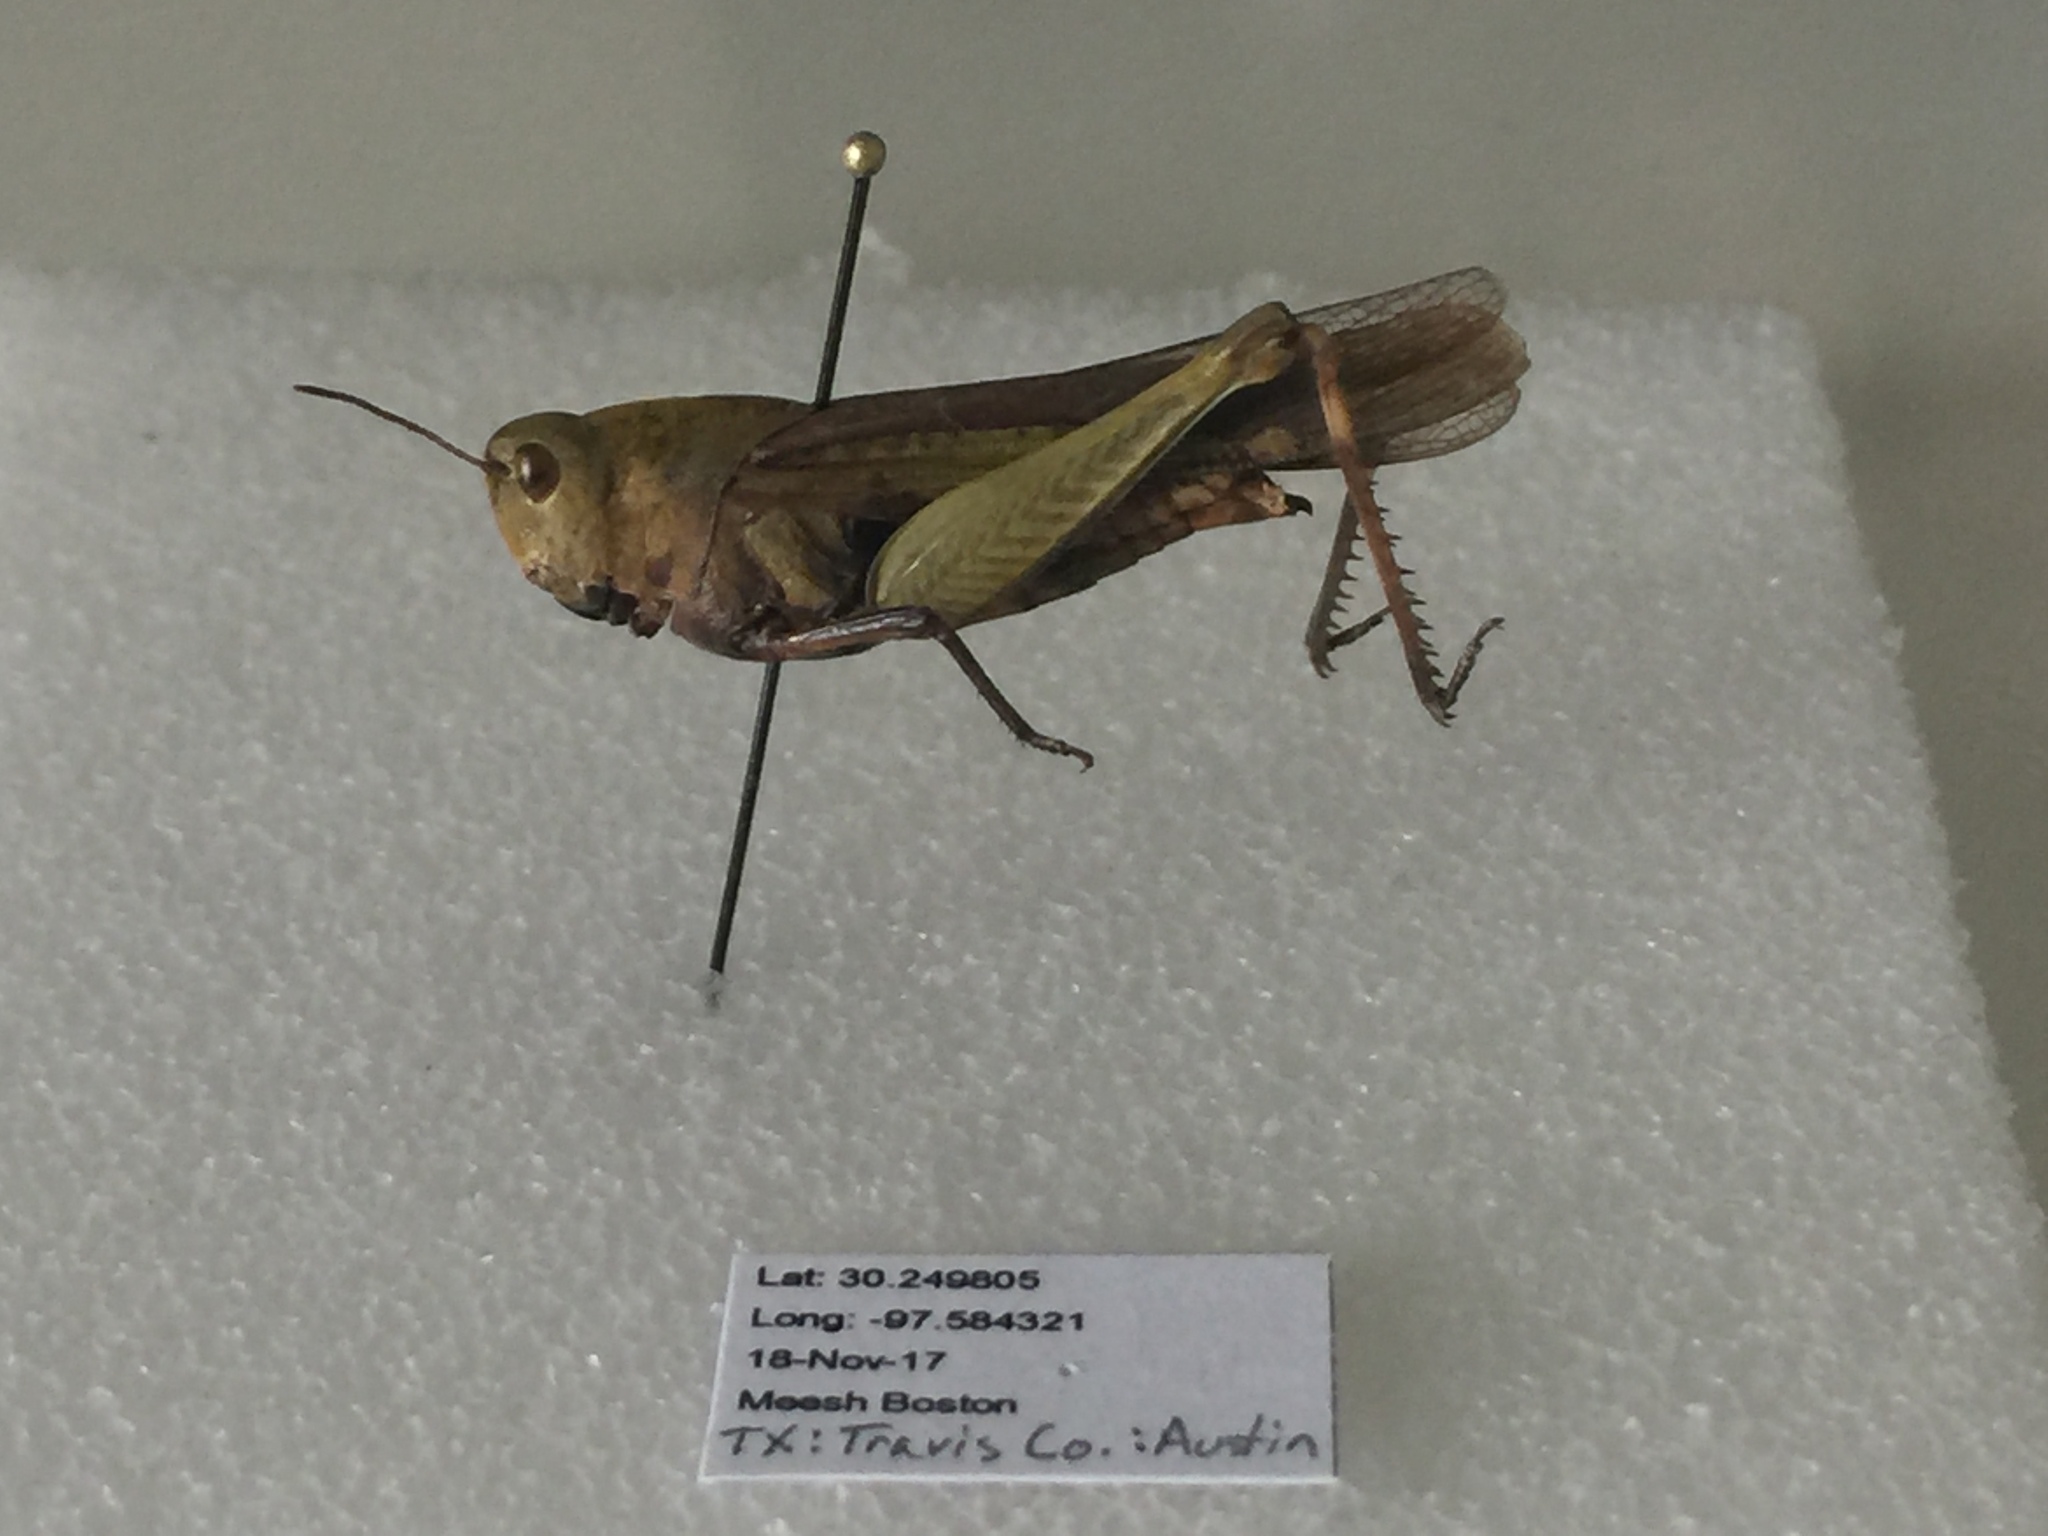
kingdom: Animalia
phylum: Arthropoda
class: Insecta
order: Orthoptera
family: Acrididae
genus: Chortophaga
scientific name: Chortophaga viridifasciata
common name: Green-striped grasshopper
